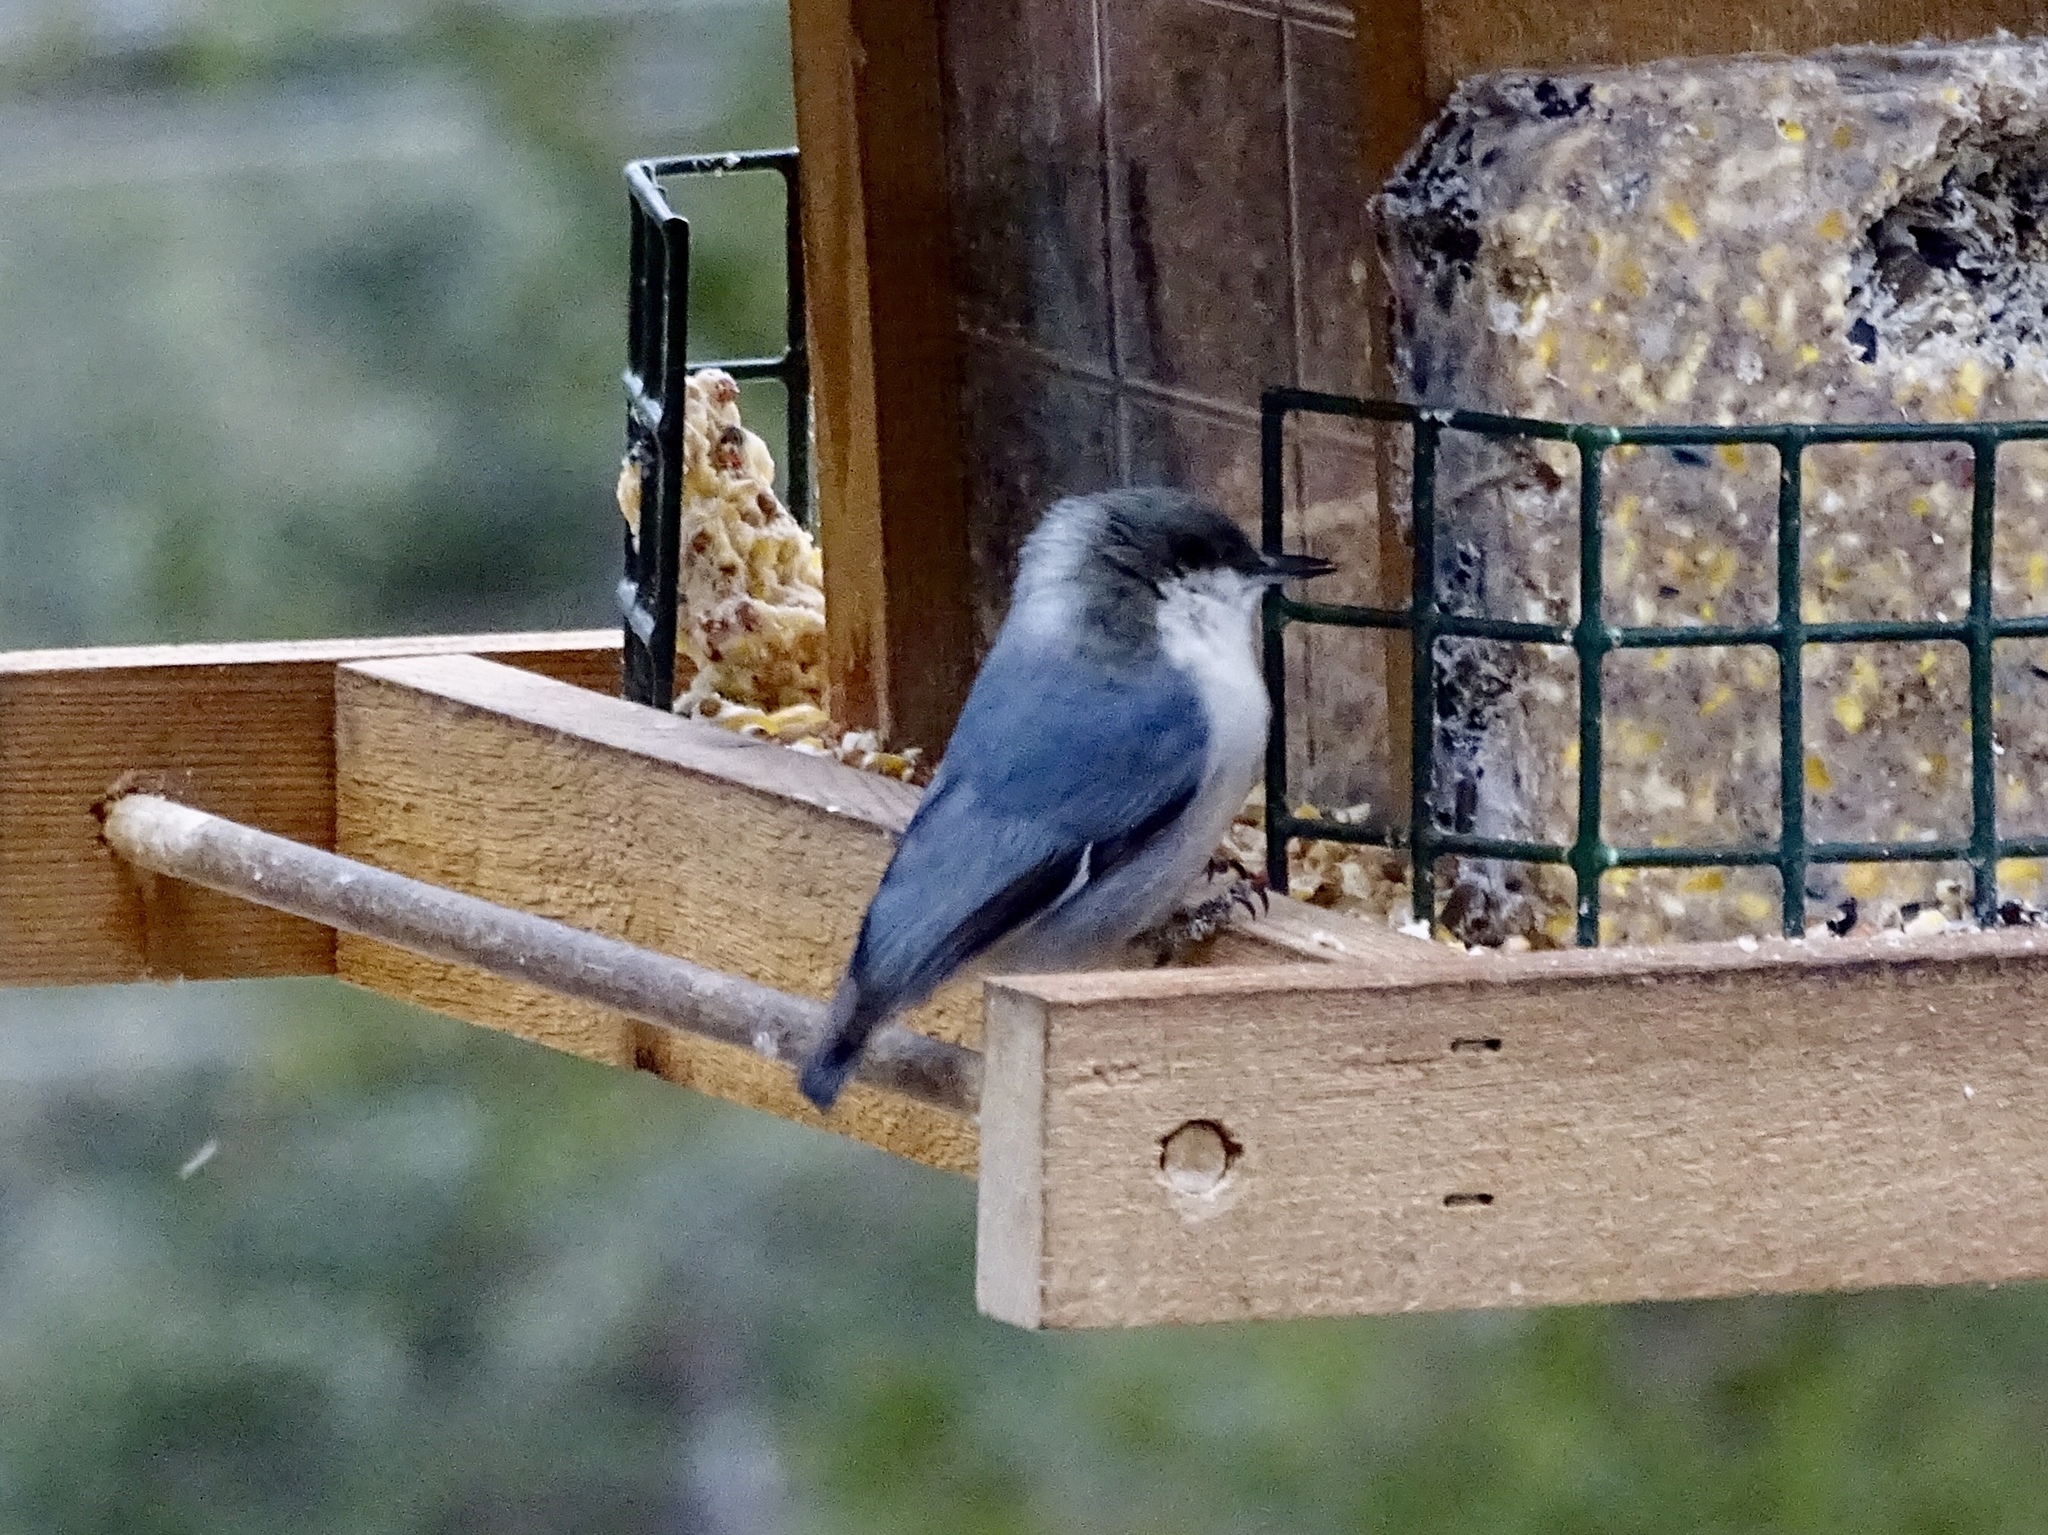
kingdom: Animalia
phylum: Chordata
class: Aves
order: Passeriformes
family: Sittidae
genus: Sitta
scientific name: Sitta pygmaea
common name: Pygmy nuthatch
